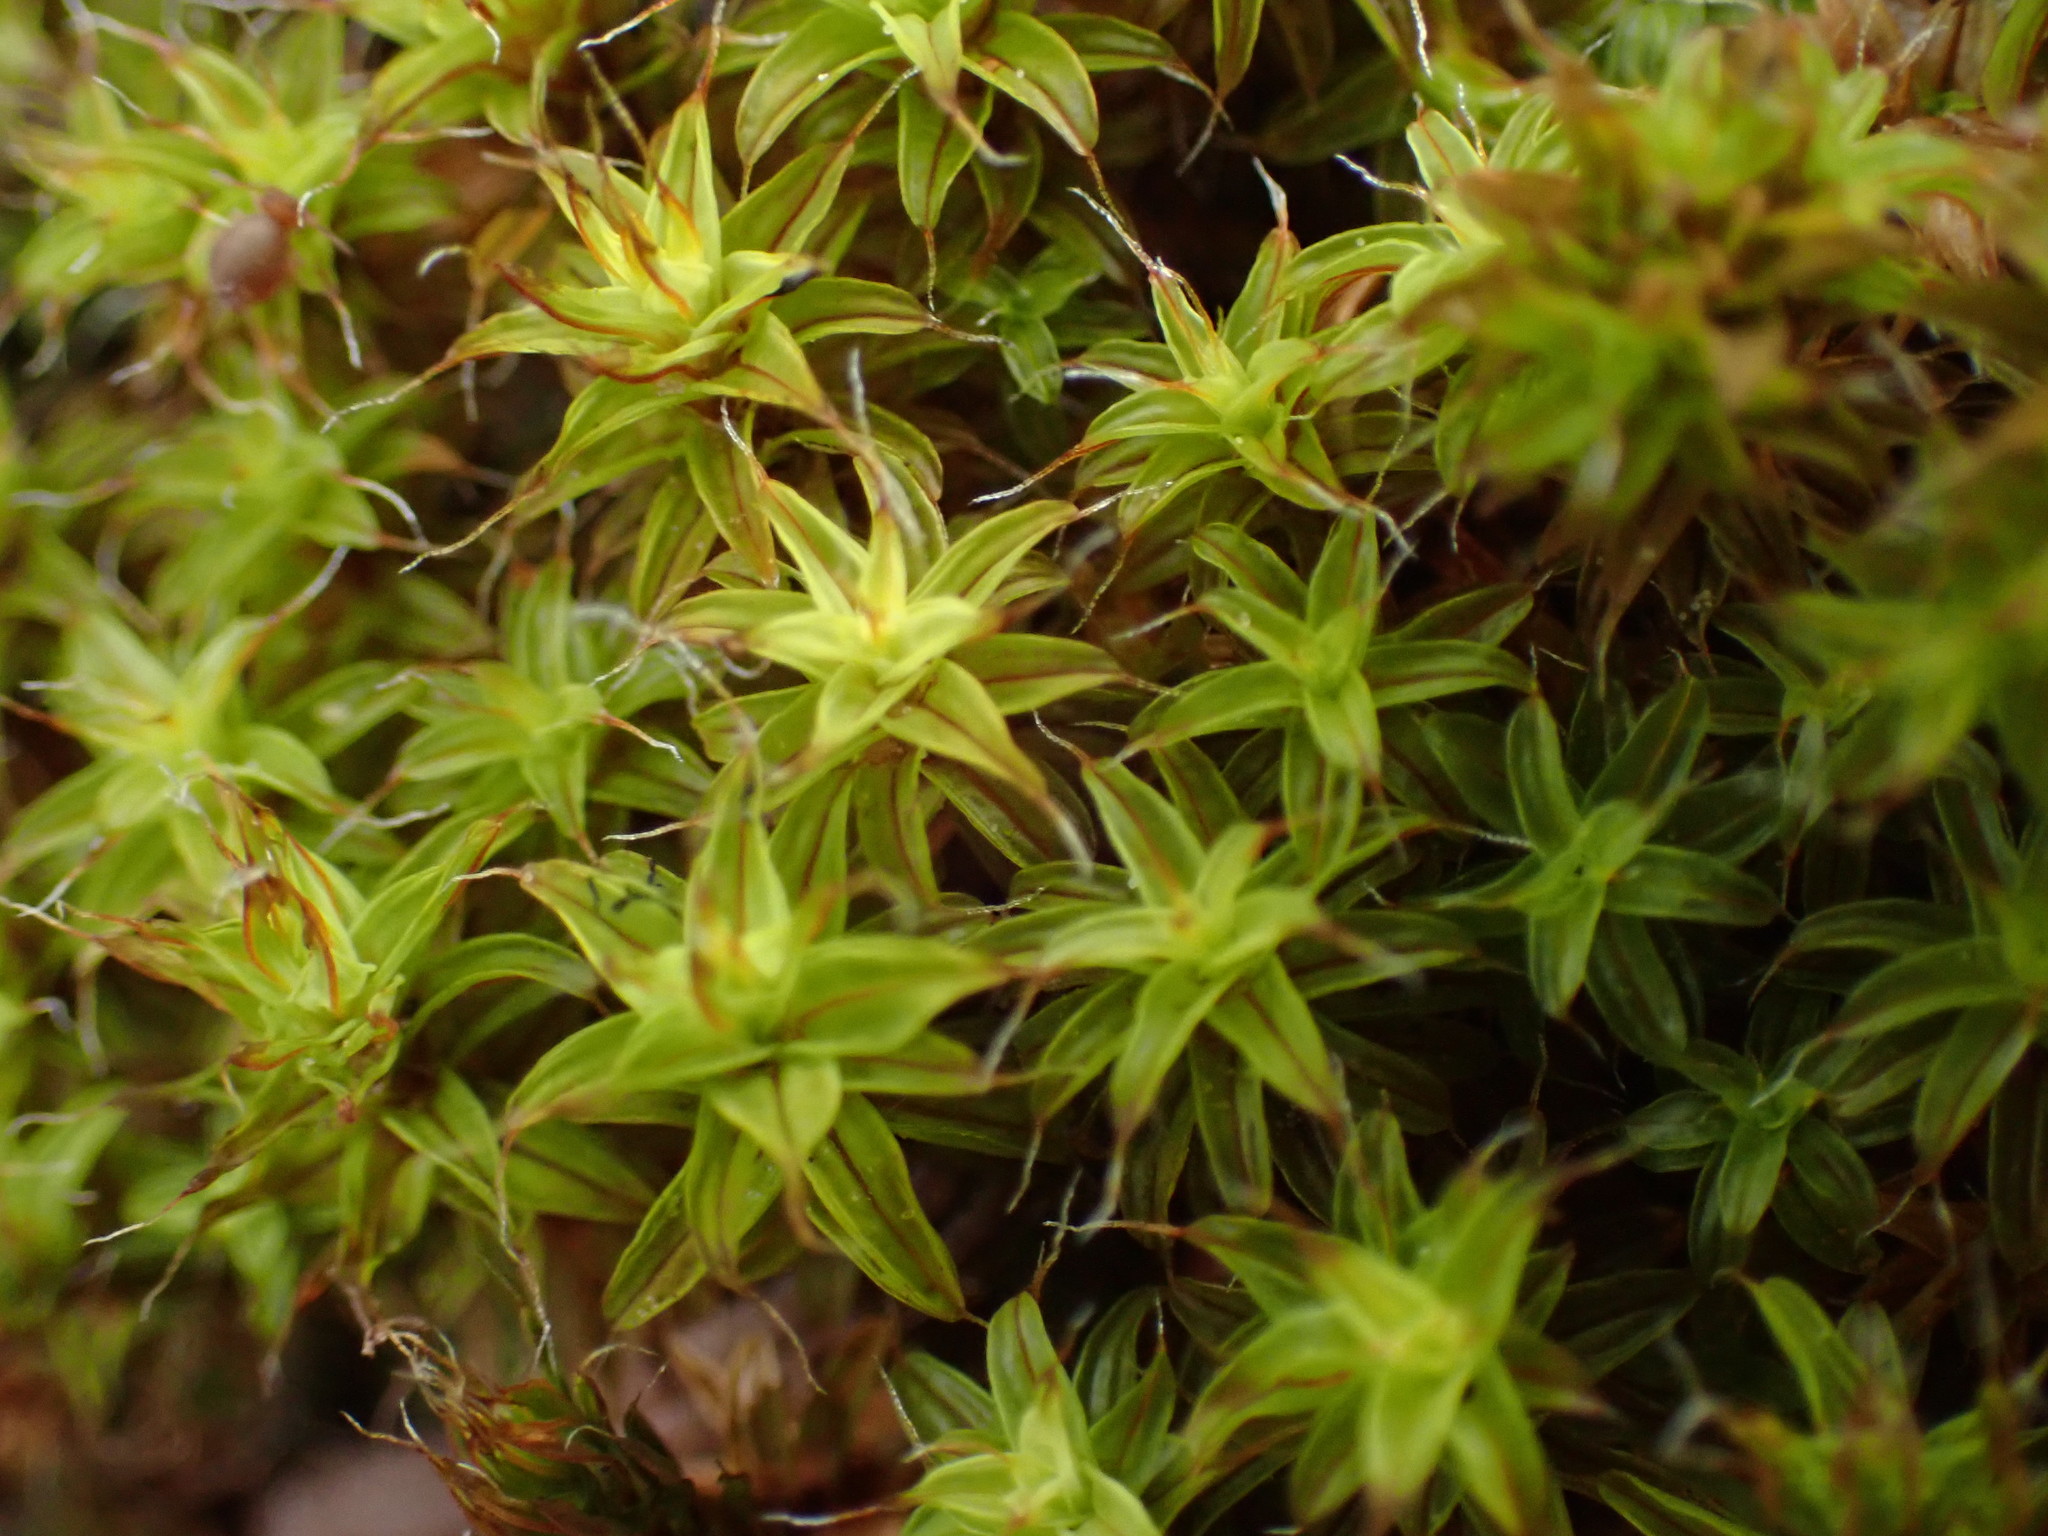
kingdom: Plantae
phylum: Bryophyta
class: Bryopsida
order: Pottiales
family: Pottiaceae
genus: Syntrichia
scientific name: Syntrichia ruralis
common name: Sidewalk screw moss
